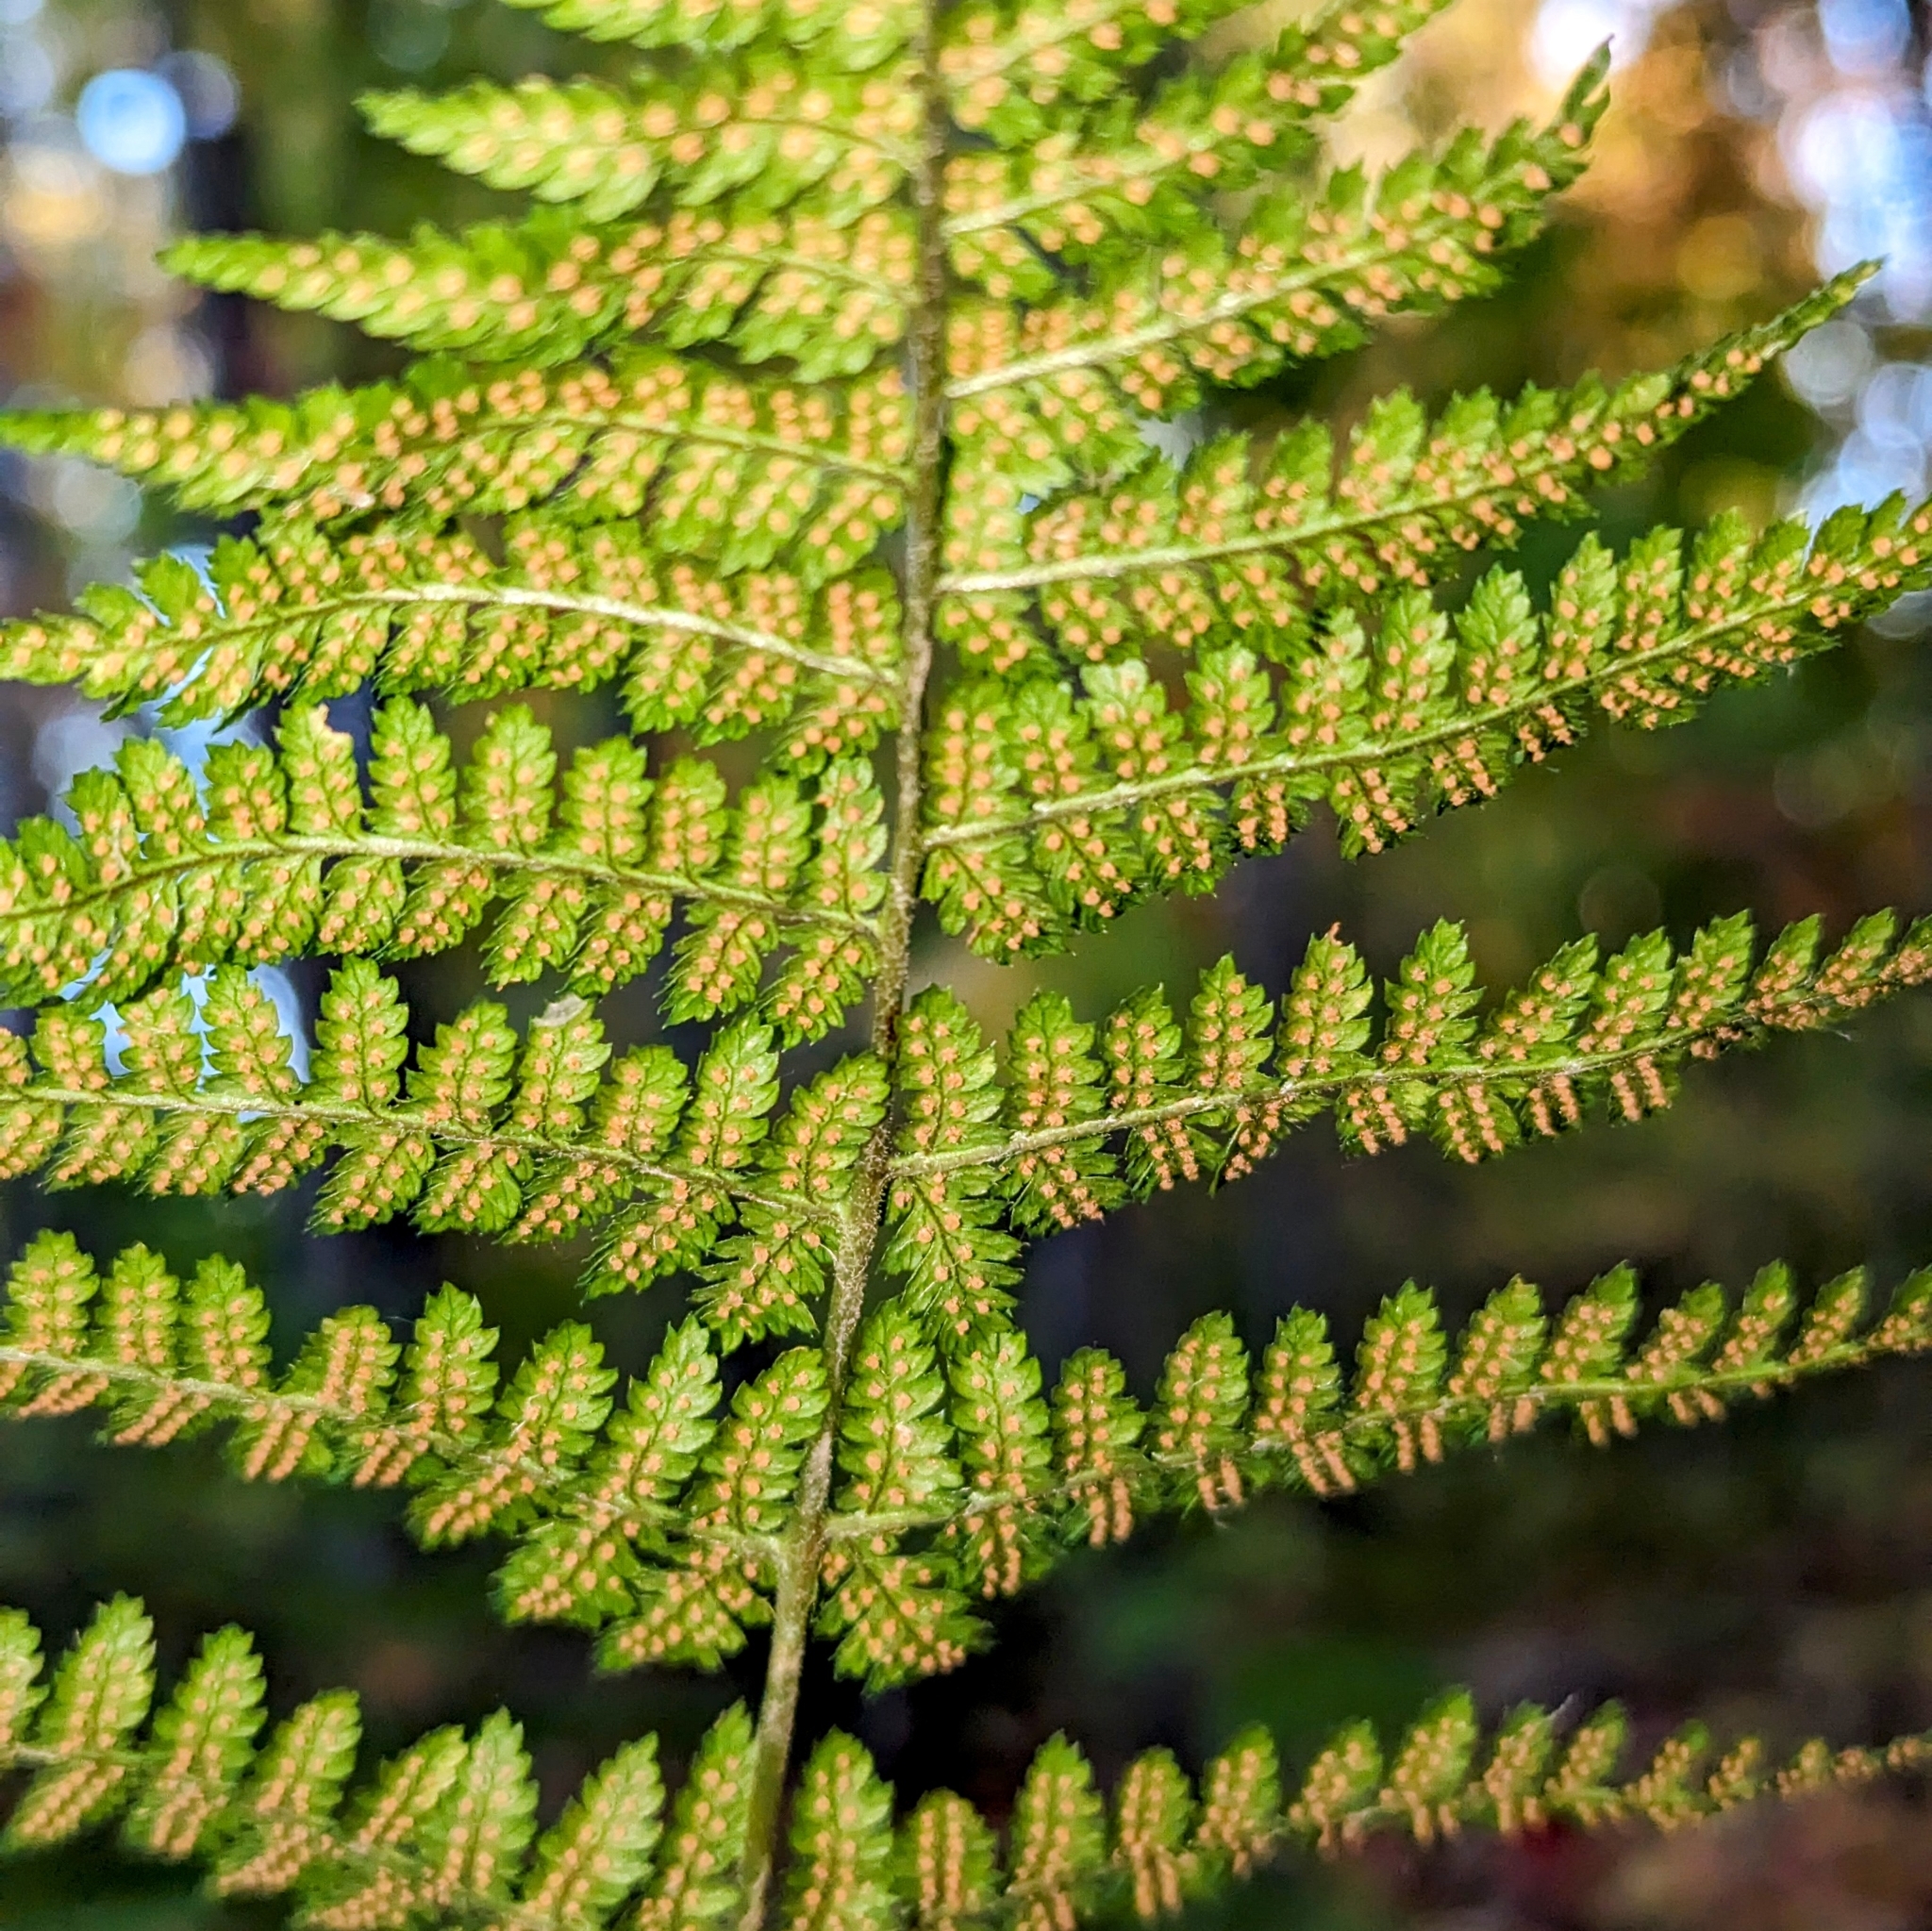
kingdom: Plantae
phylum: Tracheophyta
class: Polypodiopsida
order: Polypodiales
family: Dryopteridaceae
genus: Dryopteris
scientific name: Dryopteris intermedia
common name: Evergreen wood fern
